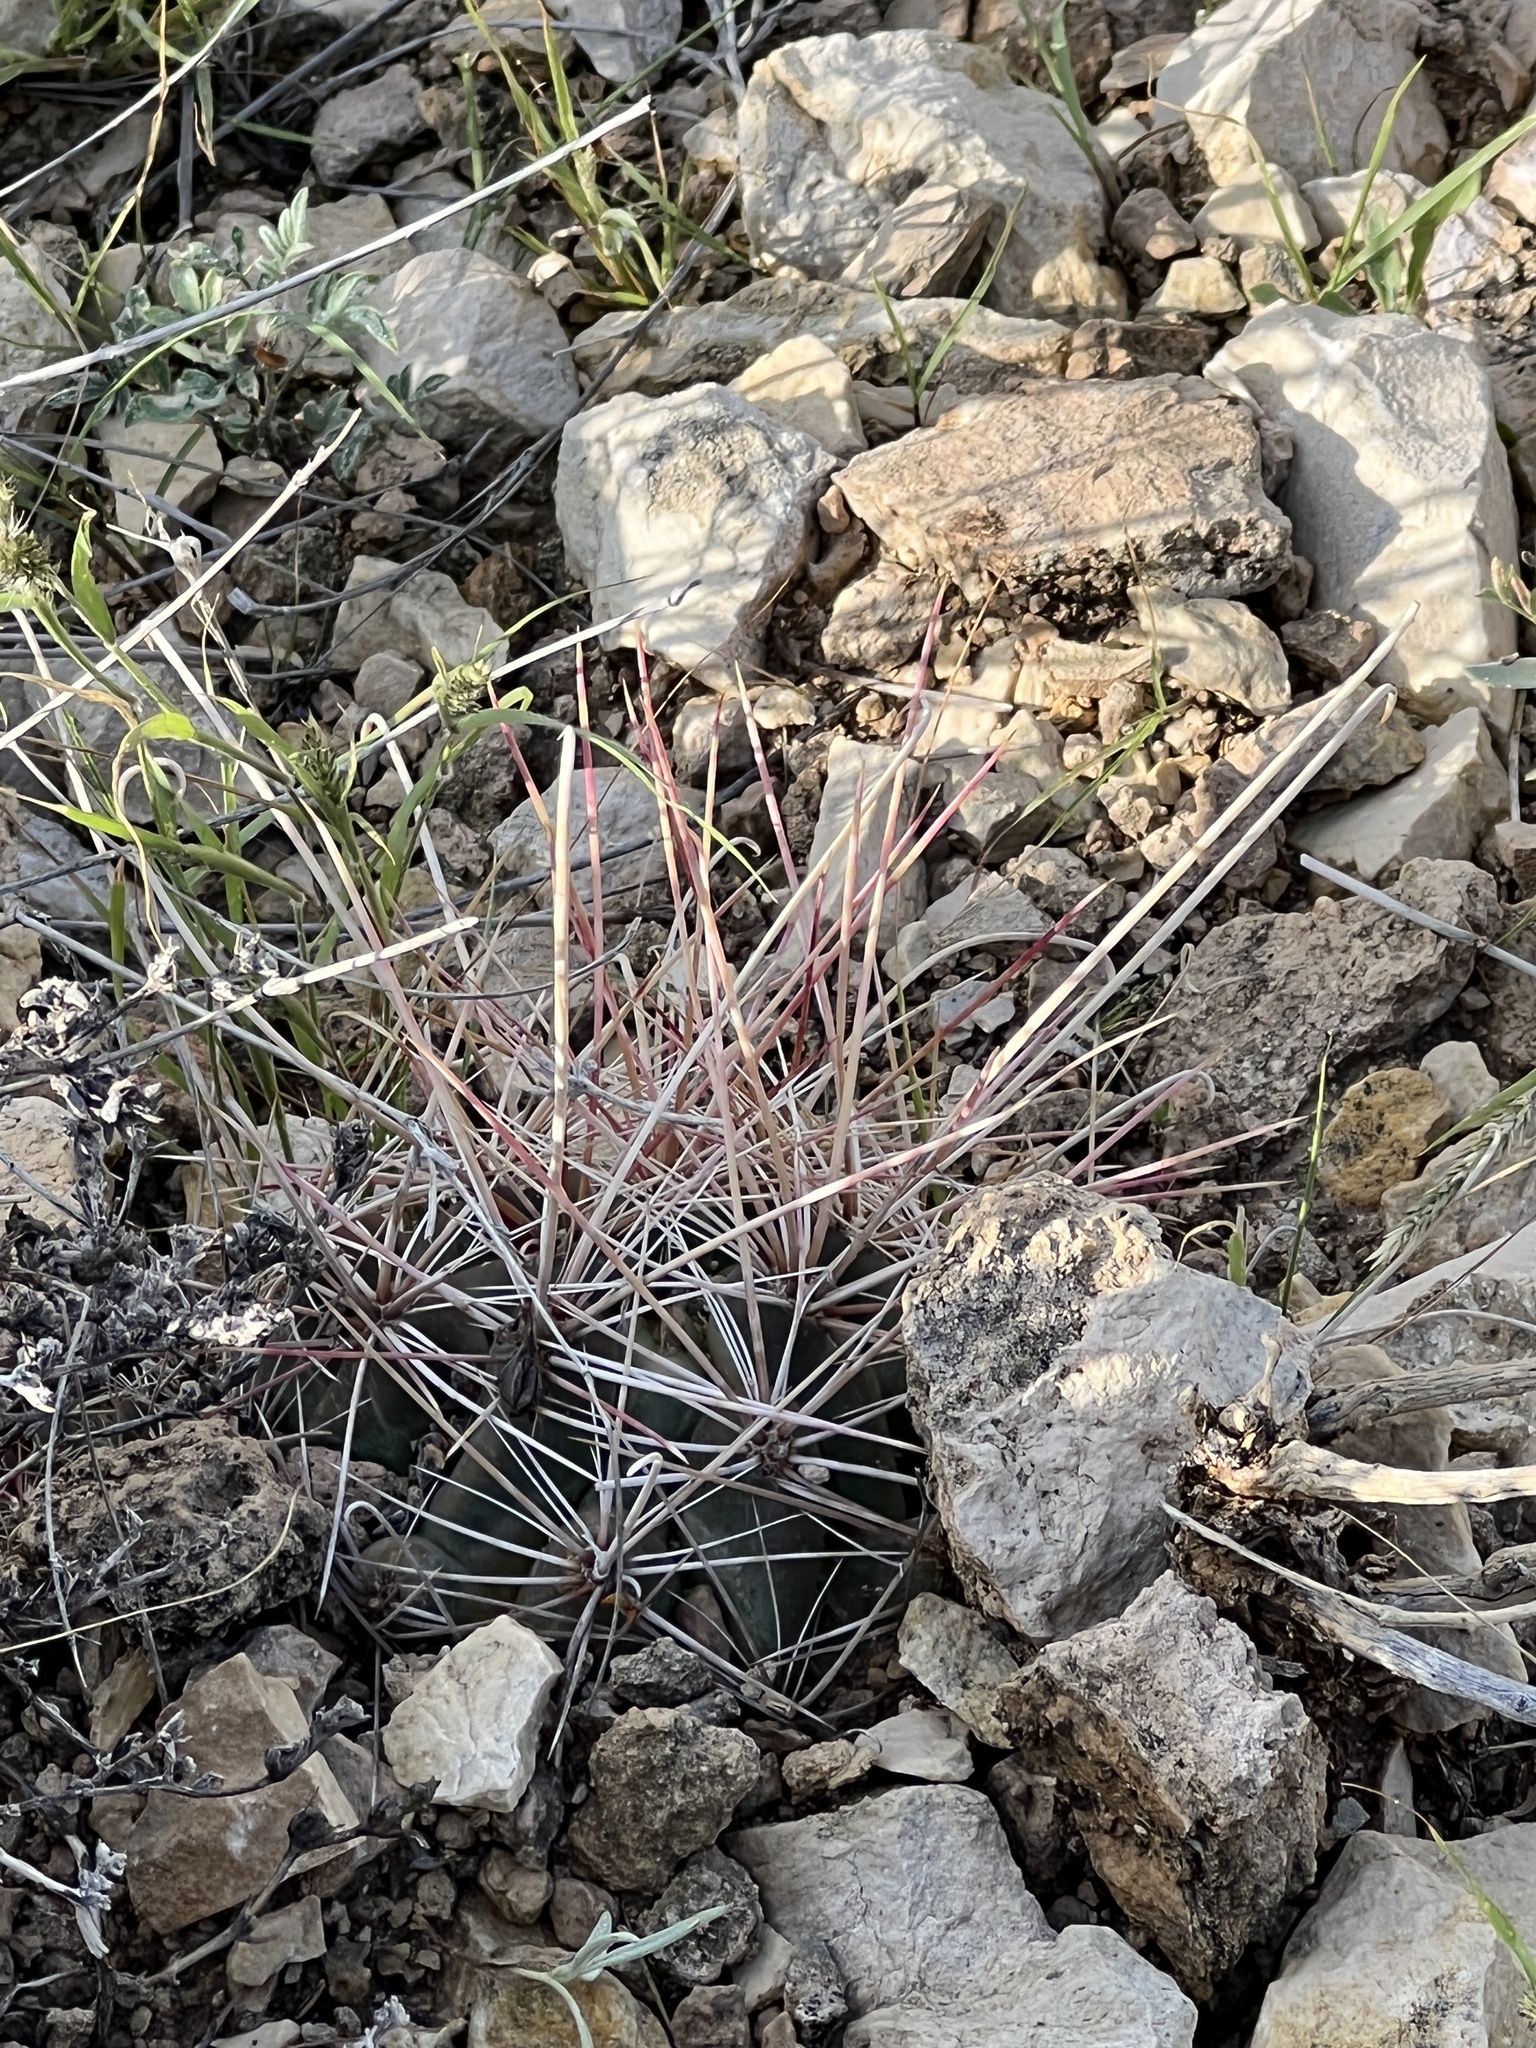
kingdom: Plantae
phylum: Tracheophyta
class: Magnoliopsida
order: Caryophyllales
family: Cactaceae
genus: Bisnaga
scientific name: Bisnaga hamatacantha
